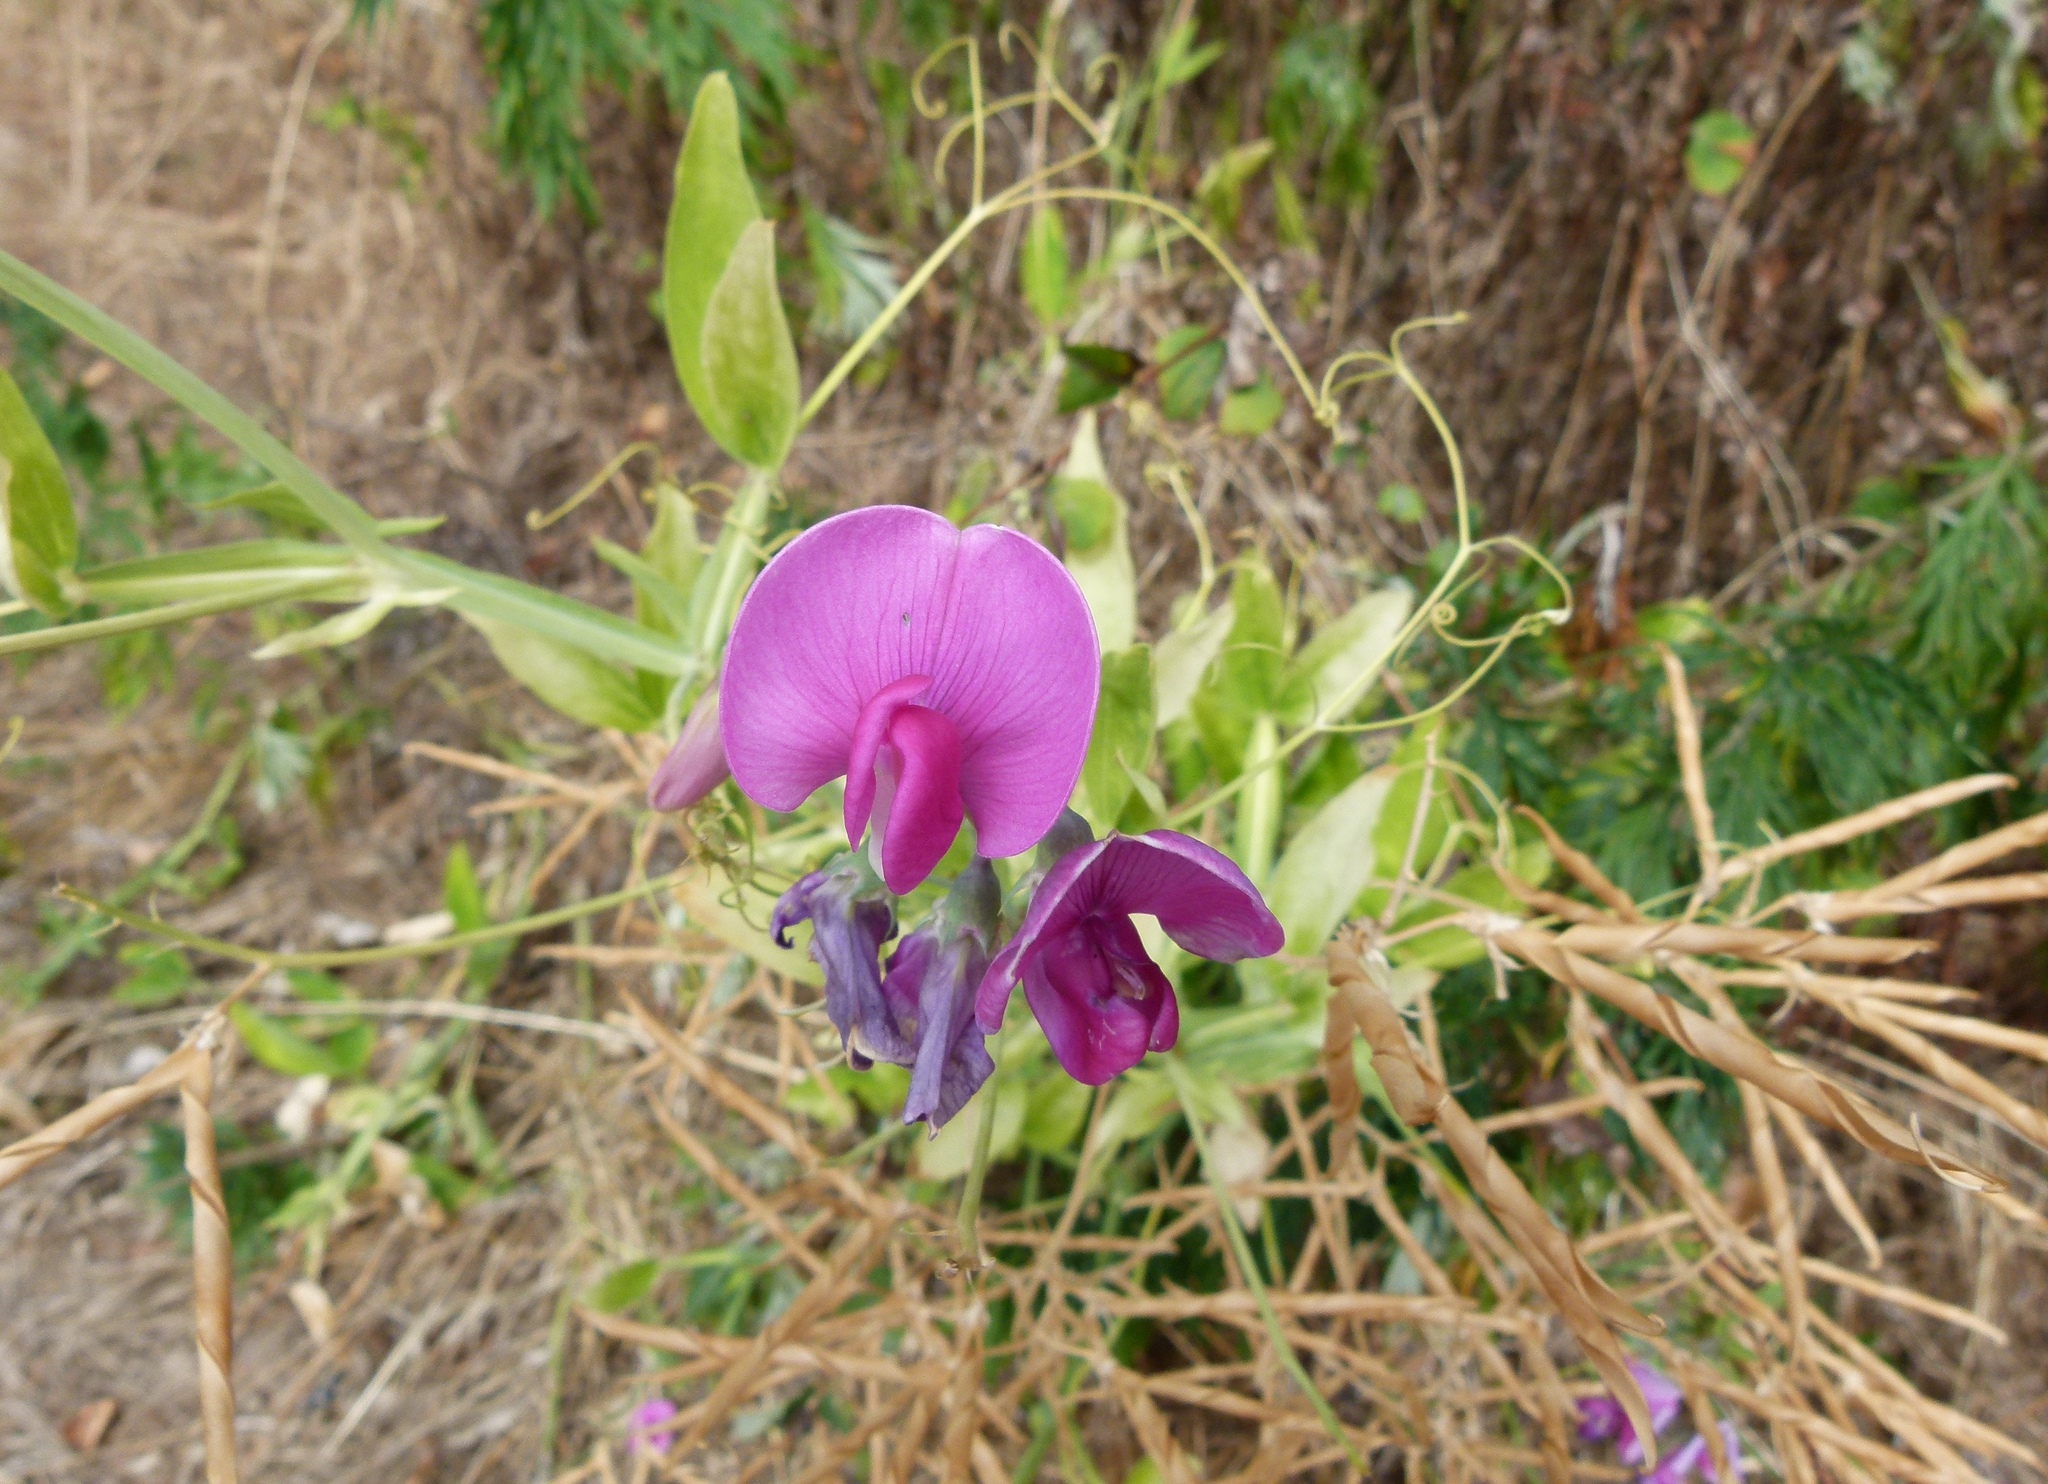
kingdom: Plantae
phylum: Tracheophyta
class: Magnoliopsida
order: Fabales
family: Fabaceae
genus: Lathyrus
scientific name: Lathyrus latifolius
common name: Perennial pea
